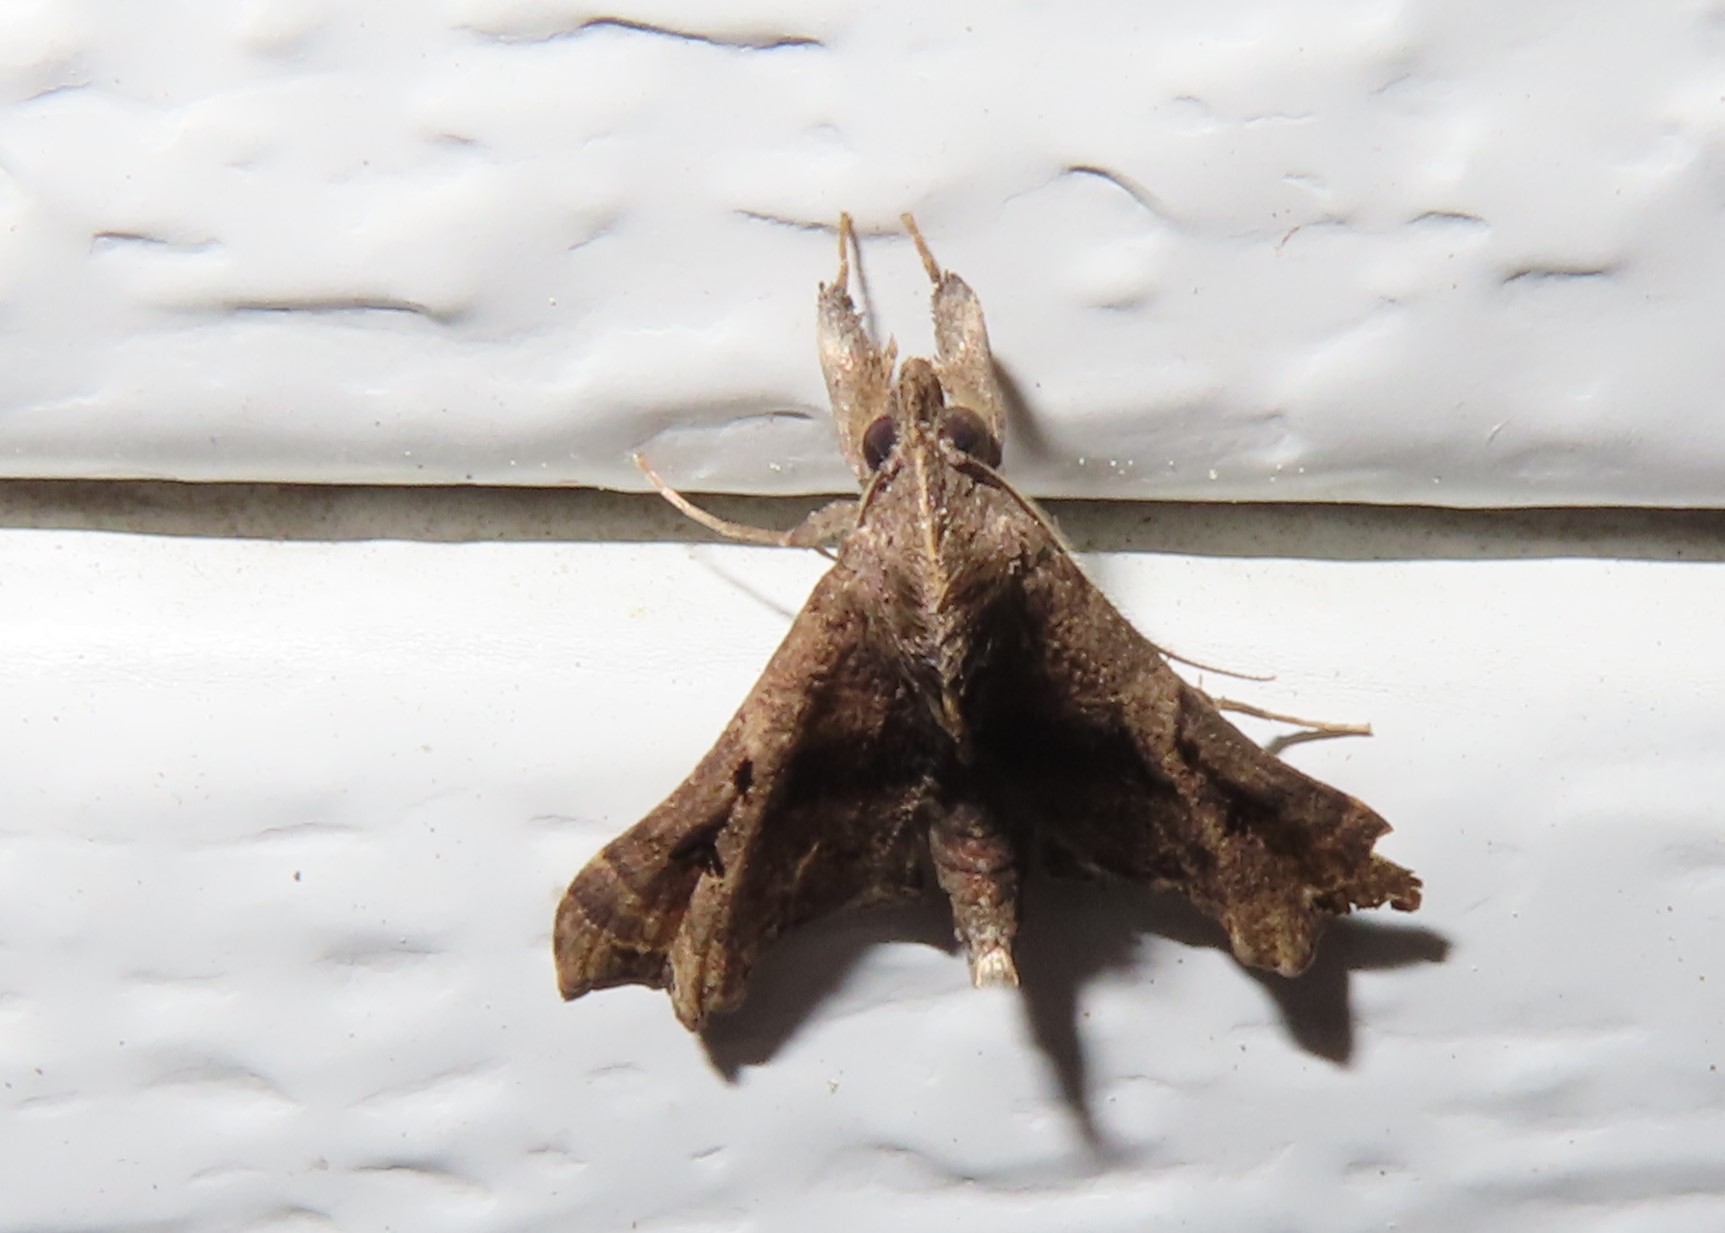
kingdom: Animalia
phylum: Arthropoda
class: Insecta
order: Lepidoptera
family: Erebidae
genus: Palthis
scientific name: Palthis asopialis
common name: Faint-spotted palthis moth
